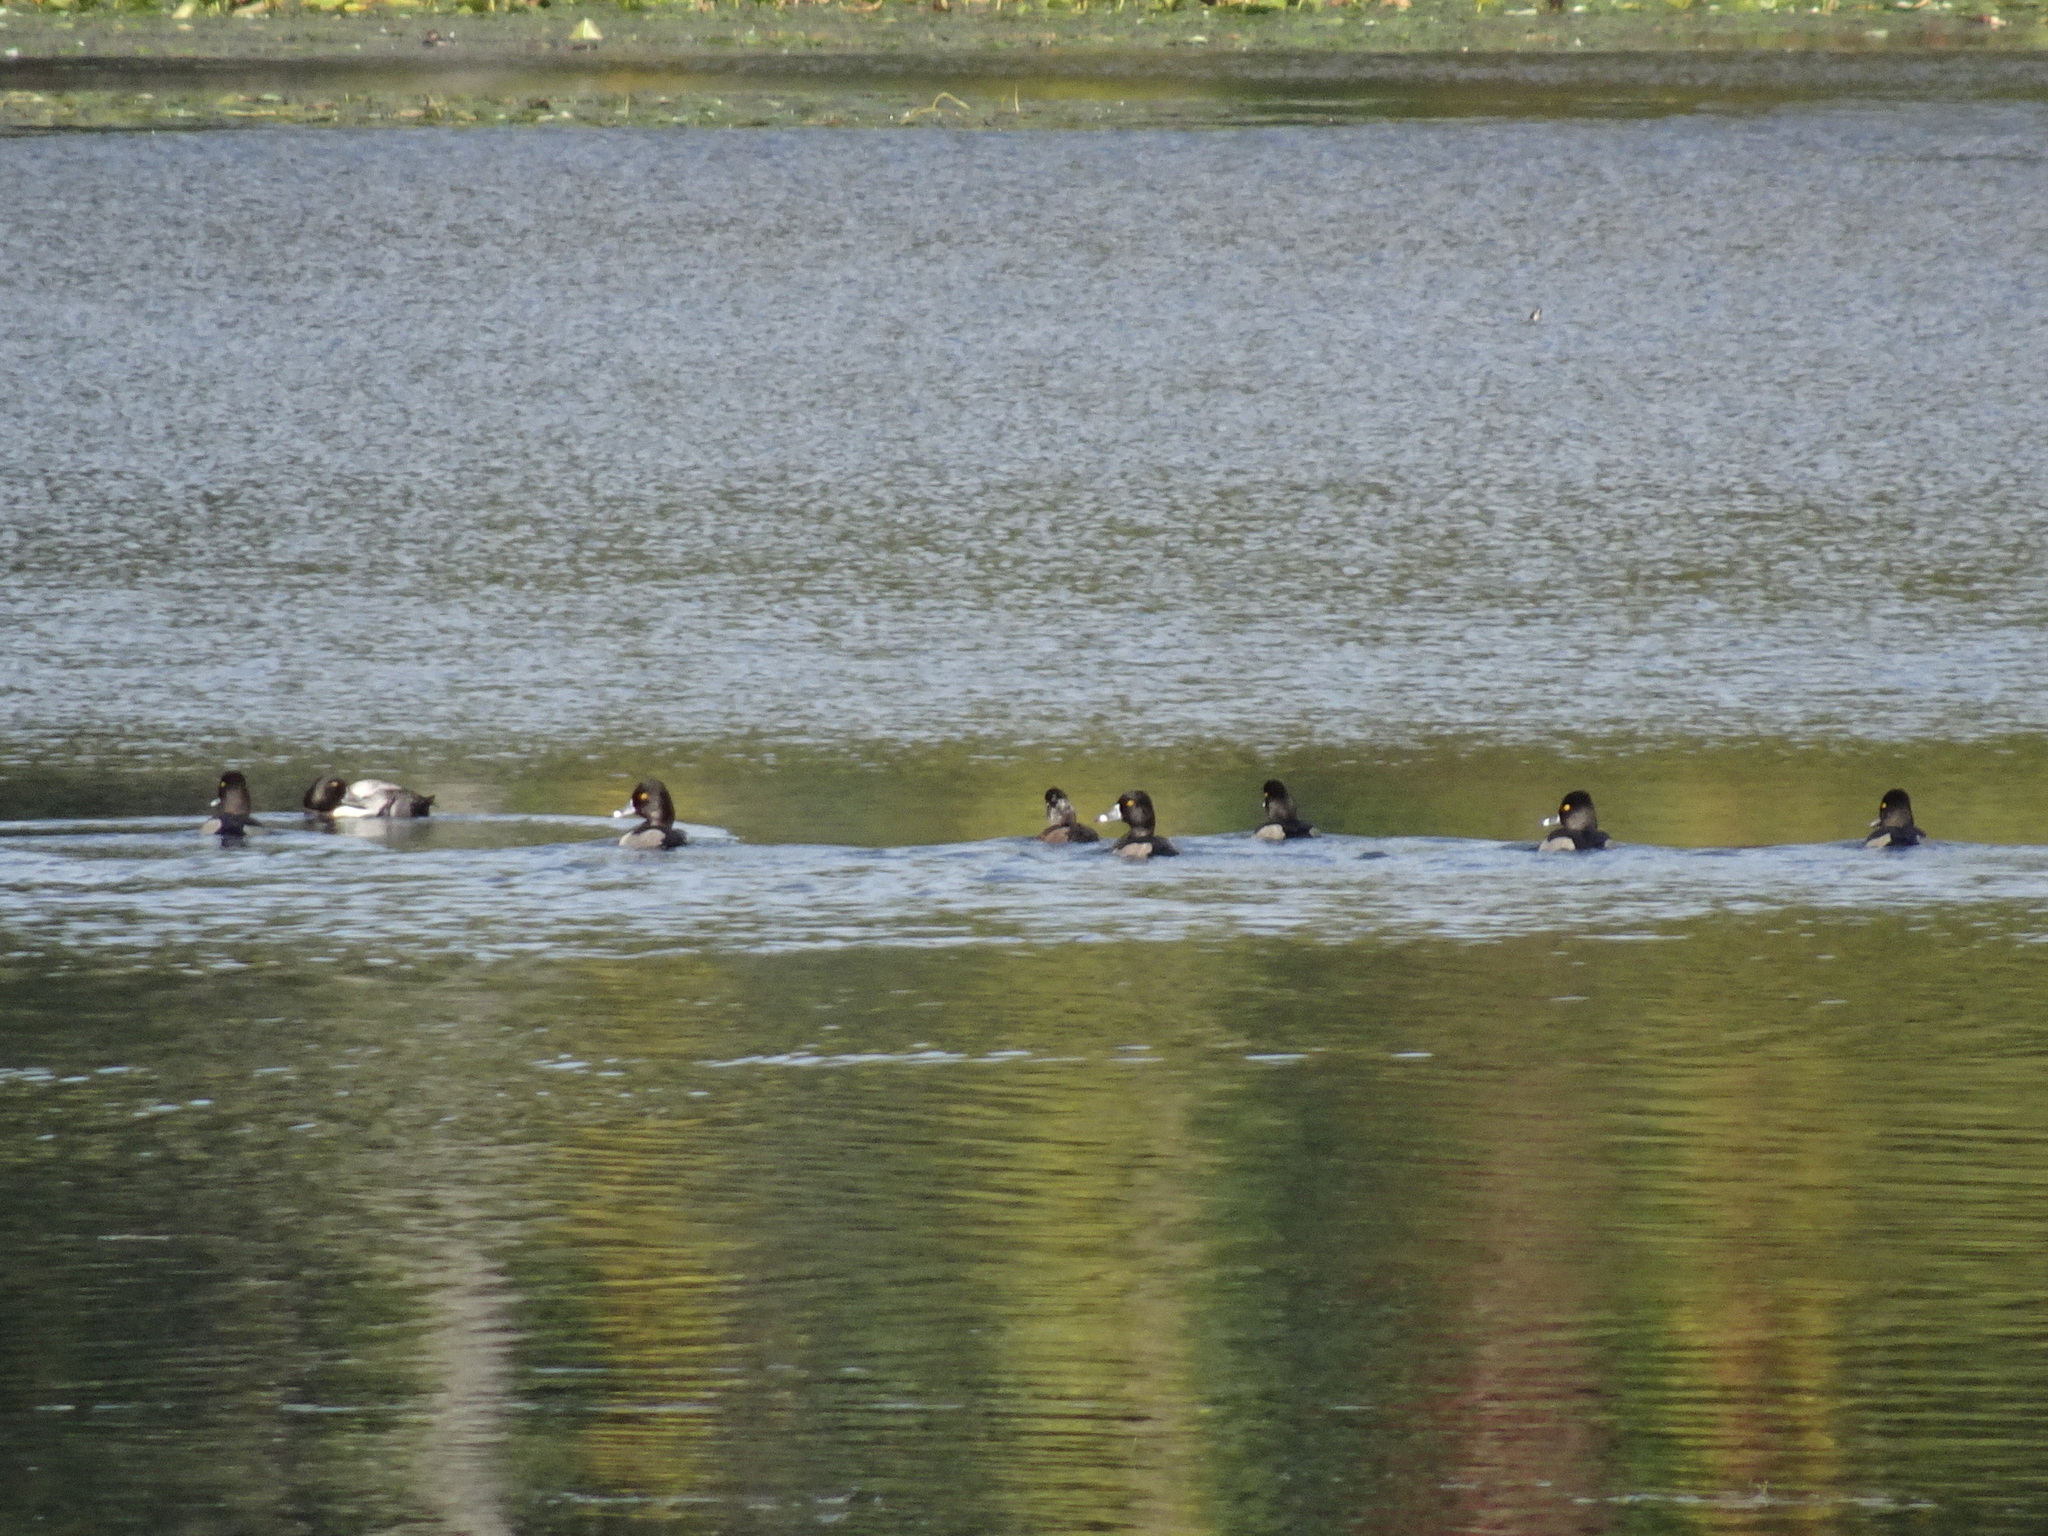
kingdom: Animalia
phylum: Chordata
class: Aves
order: Anseriformes
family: Anatidae
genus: Aythya
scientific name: Aythya collaris
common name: Ring-necked duck
